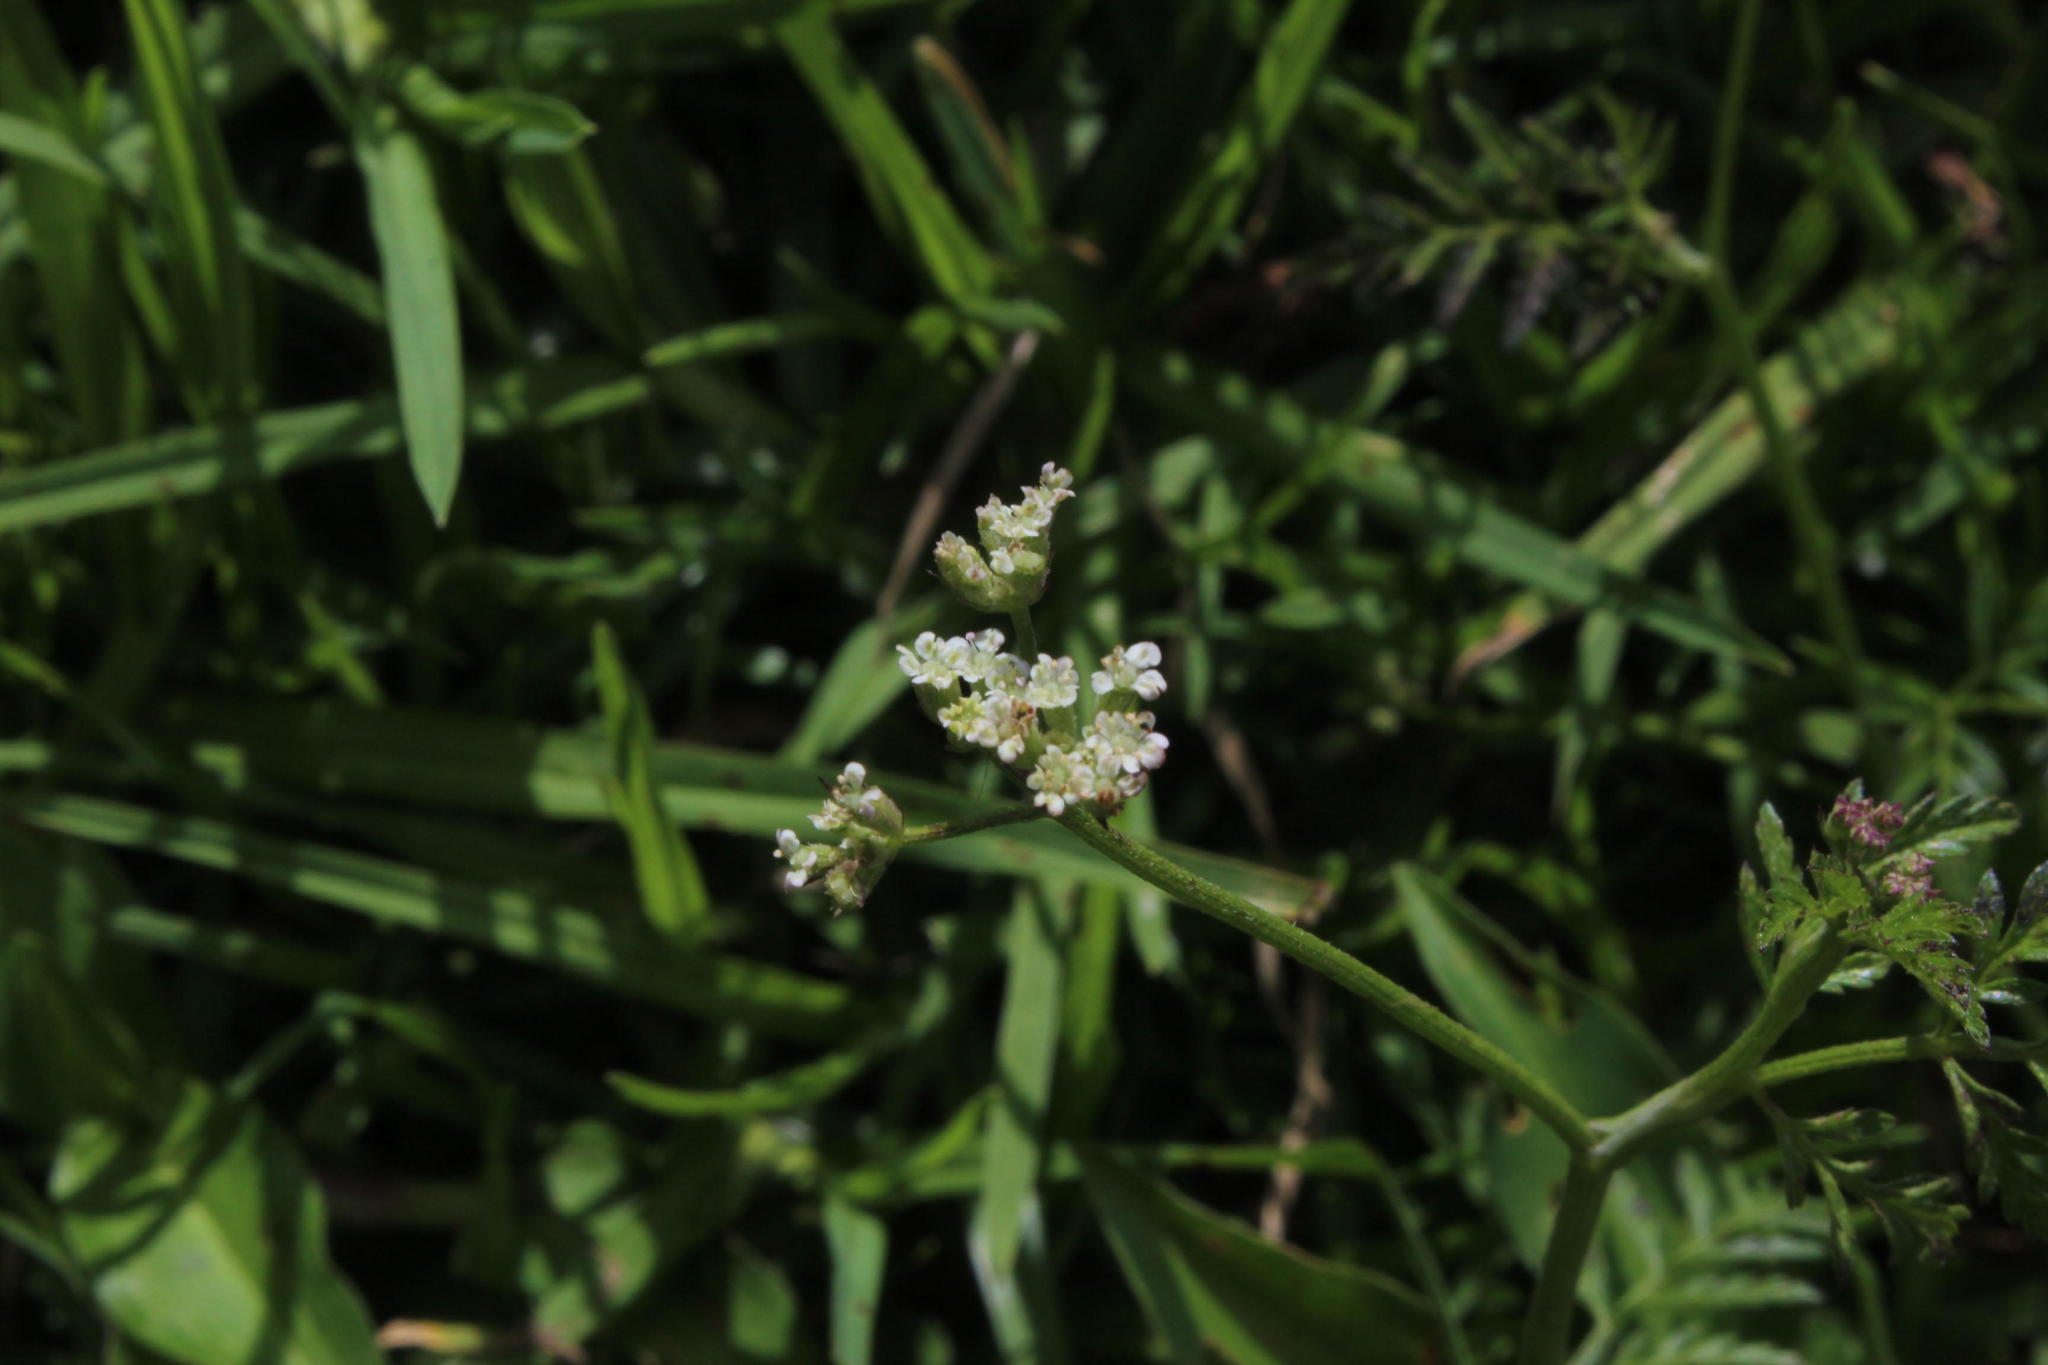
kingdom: Plantae
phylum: Tracheophyta
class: Magnoliopsida
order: Apiales
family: Apiaceae
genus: Torilis
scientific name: Torilis africana
